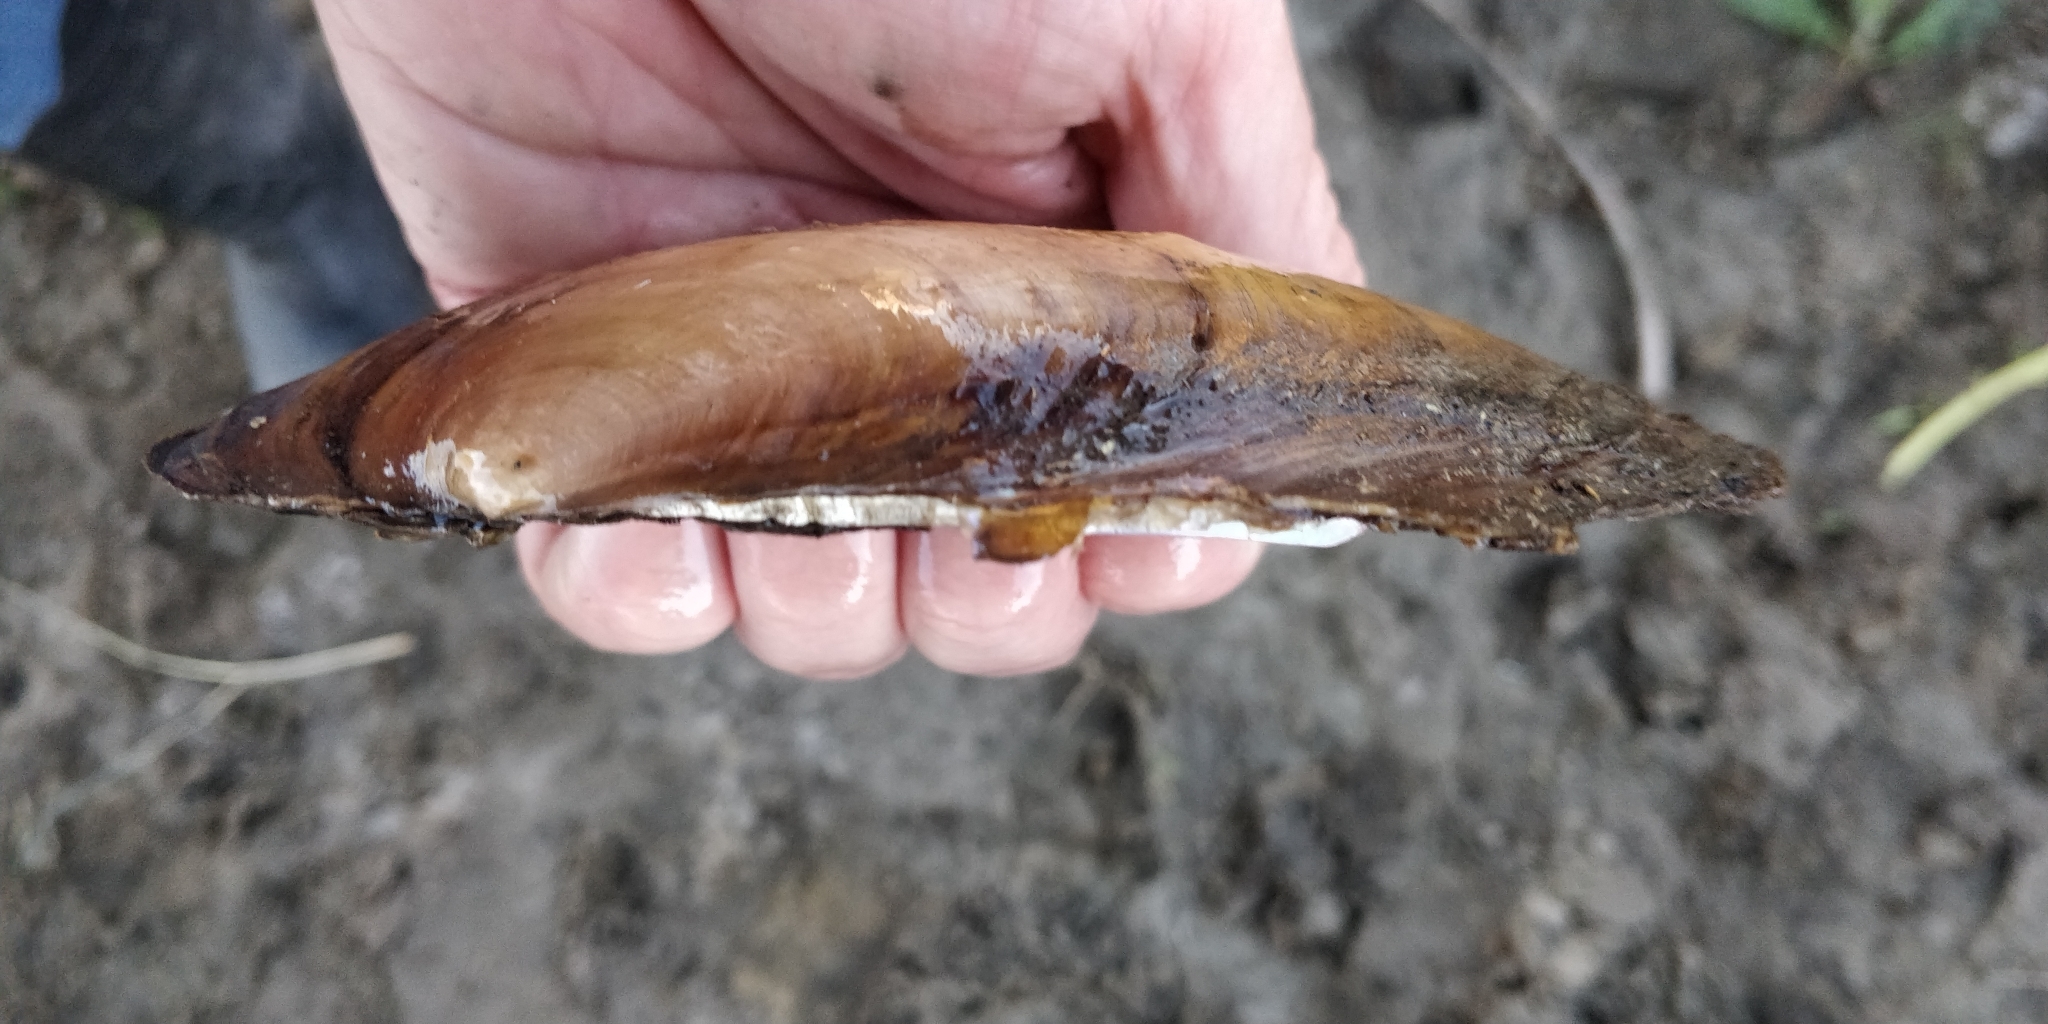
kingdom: Animalia
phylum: Mollusca
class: Bivalvia
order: Unionida
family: Unionidae
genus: Potamilus
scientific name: Potamilus fragilis
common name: Fragile papershell
